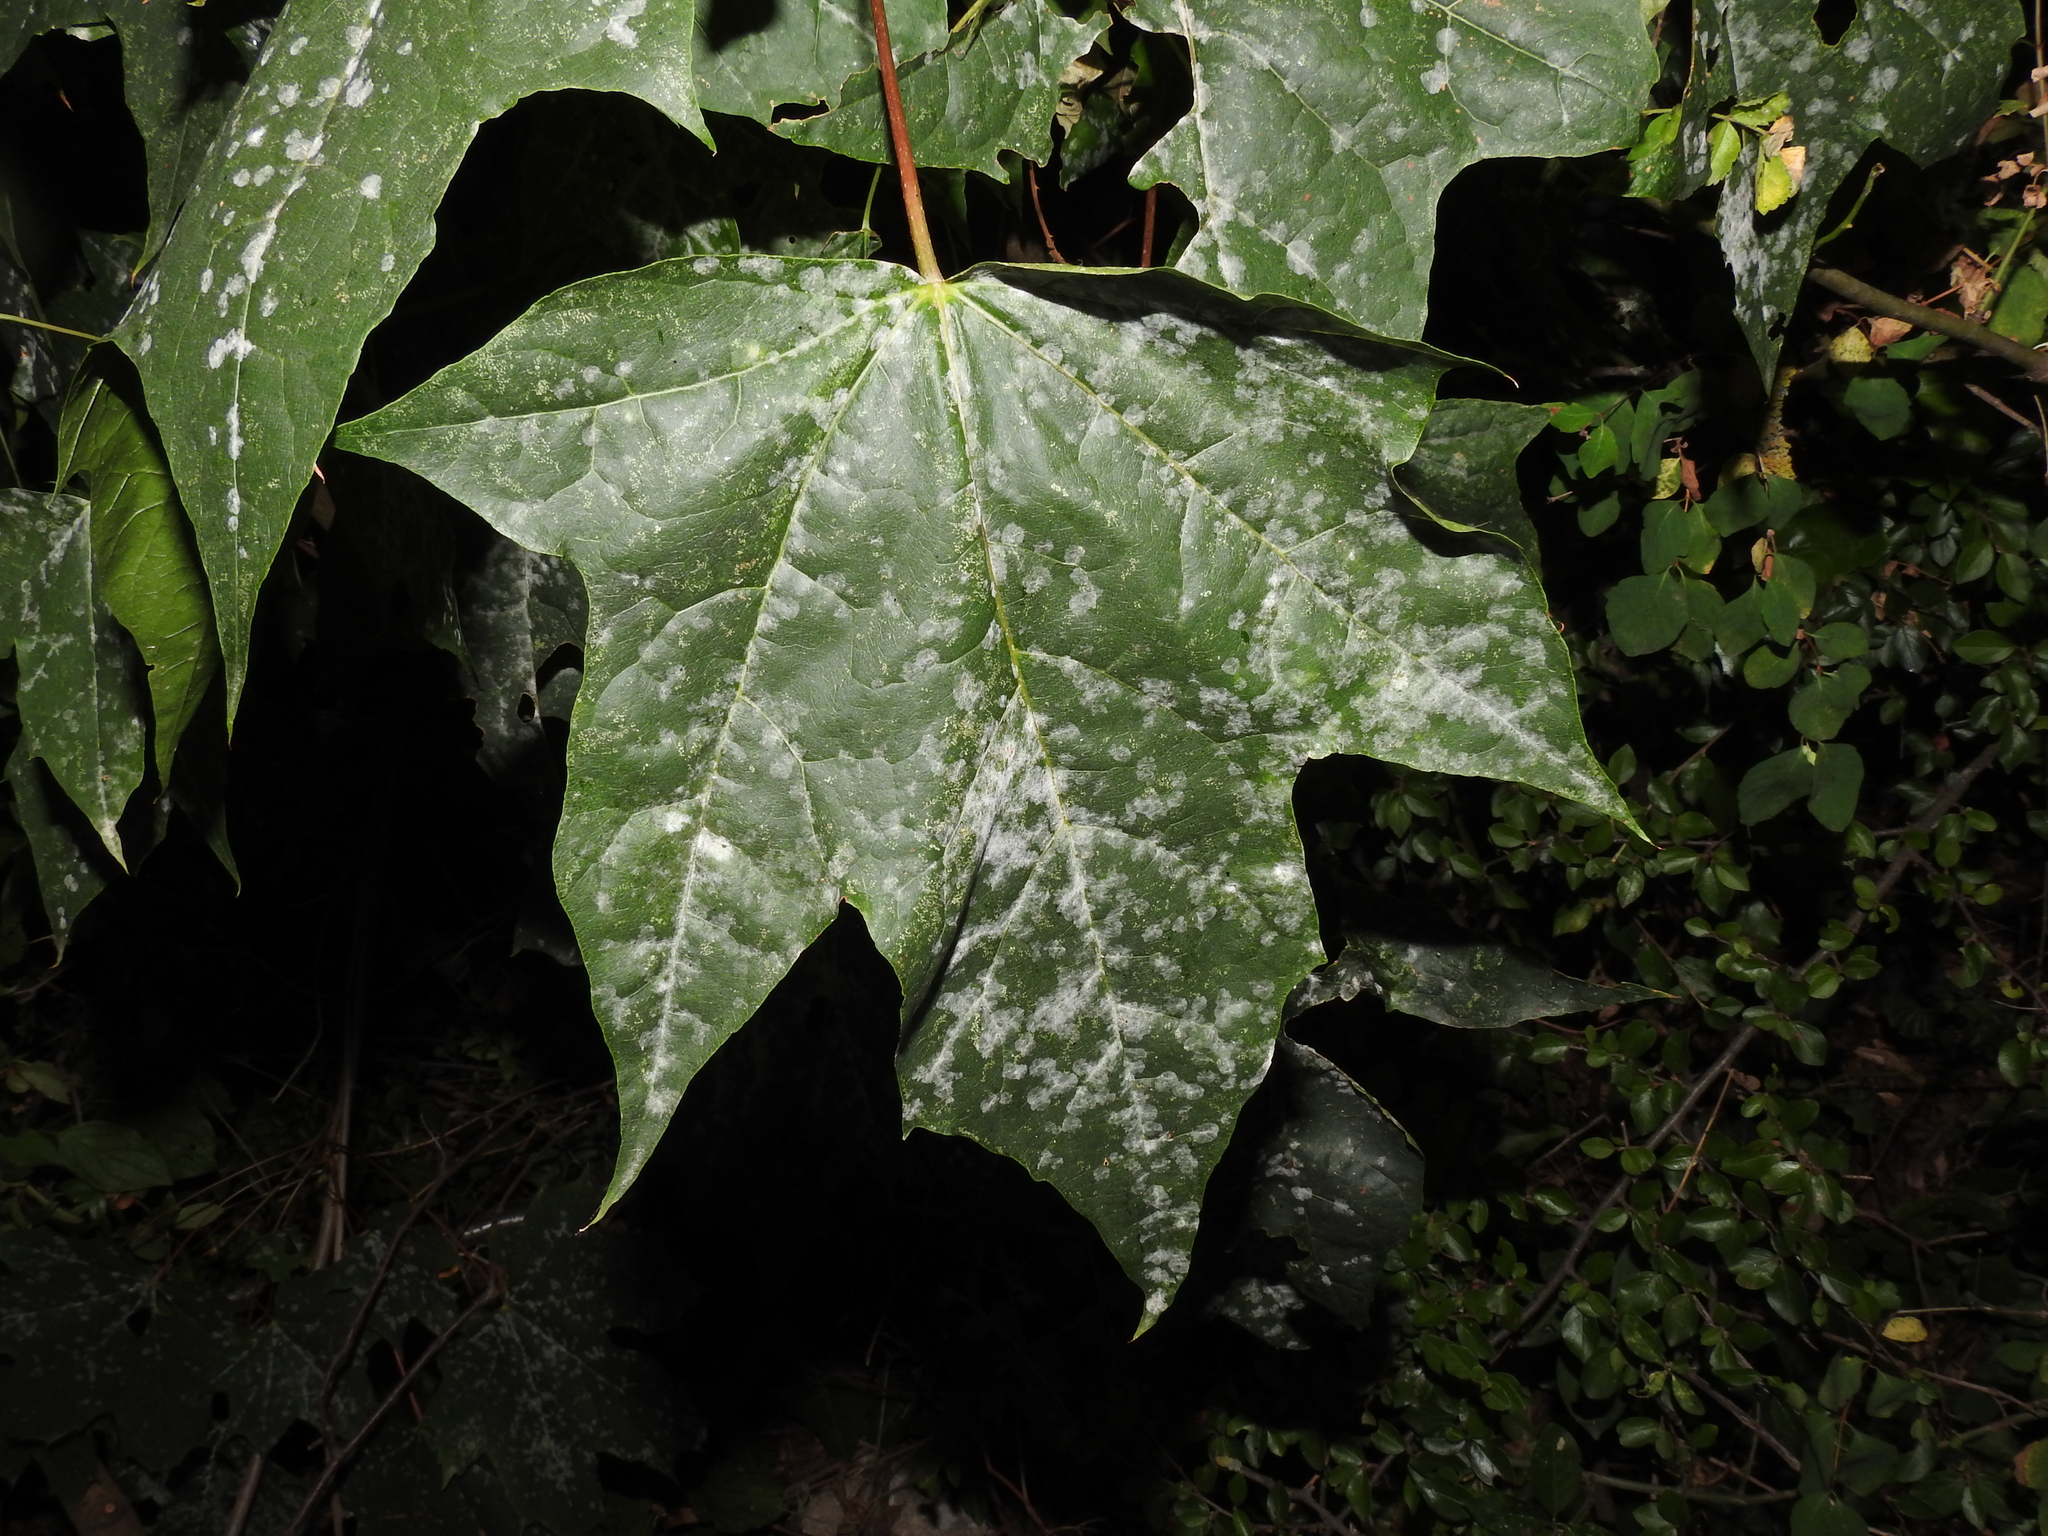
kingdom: Fungi
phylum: Ascomycota
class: Leotiomycetes
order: Helotiales
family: Erysiphaceae
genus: Sawadaea
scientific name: Sawadaea tulasnei
